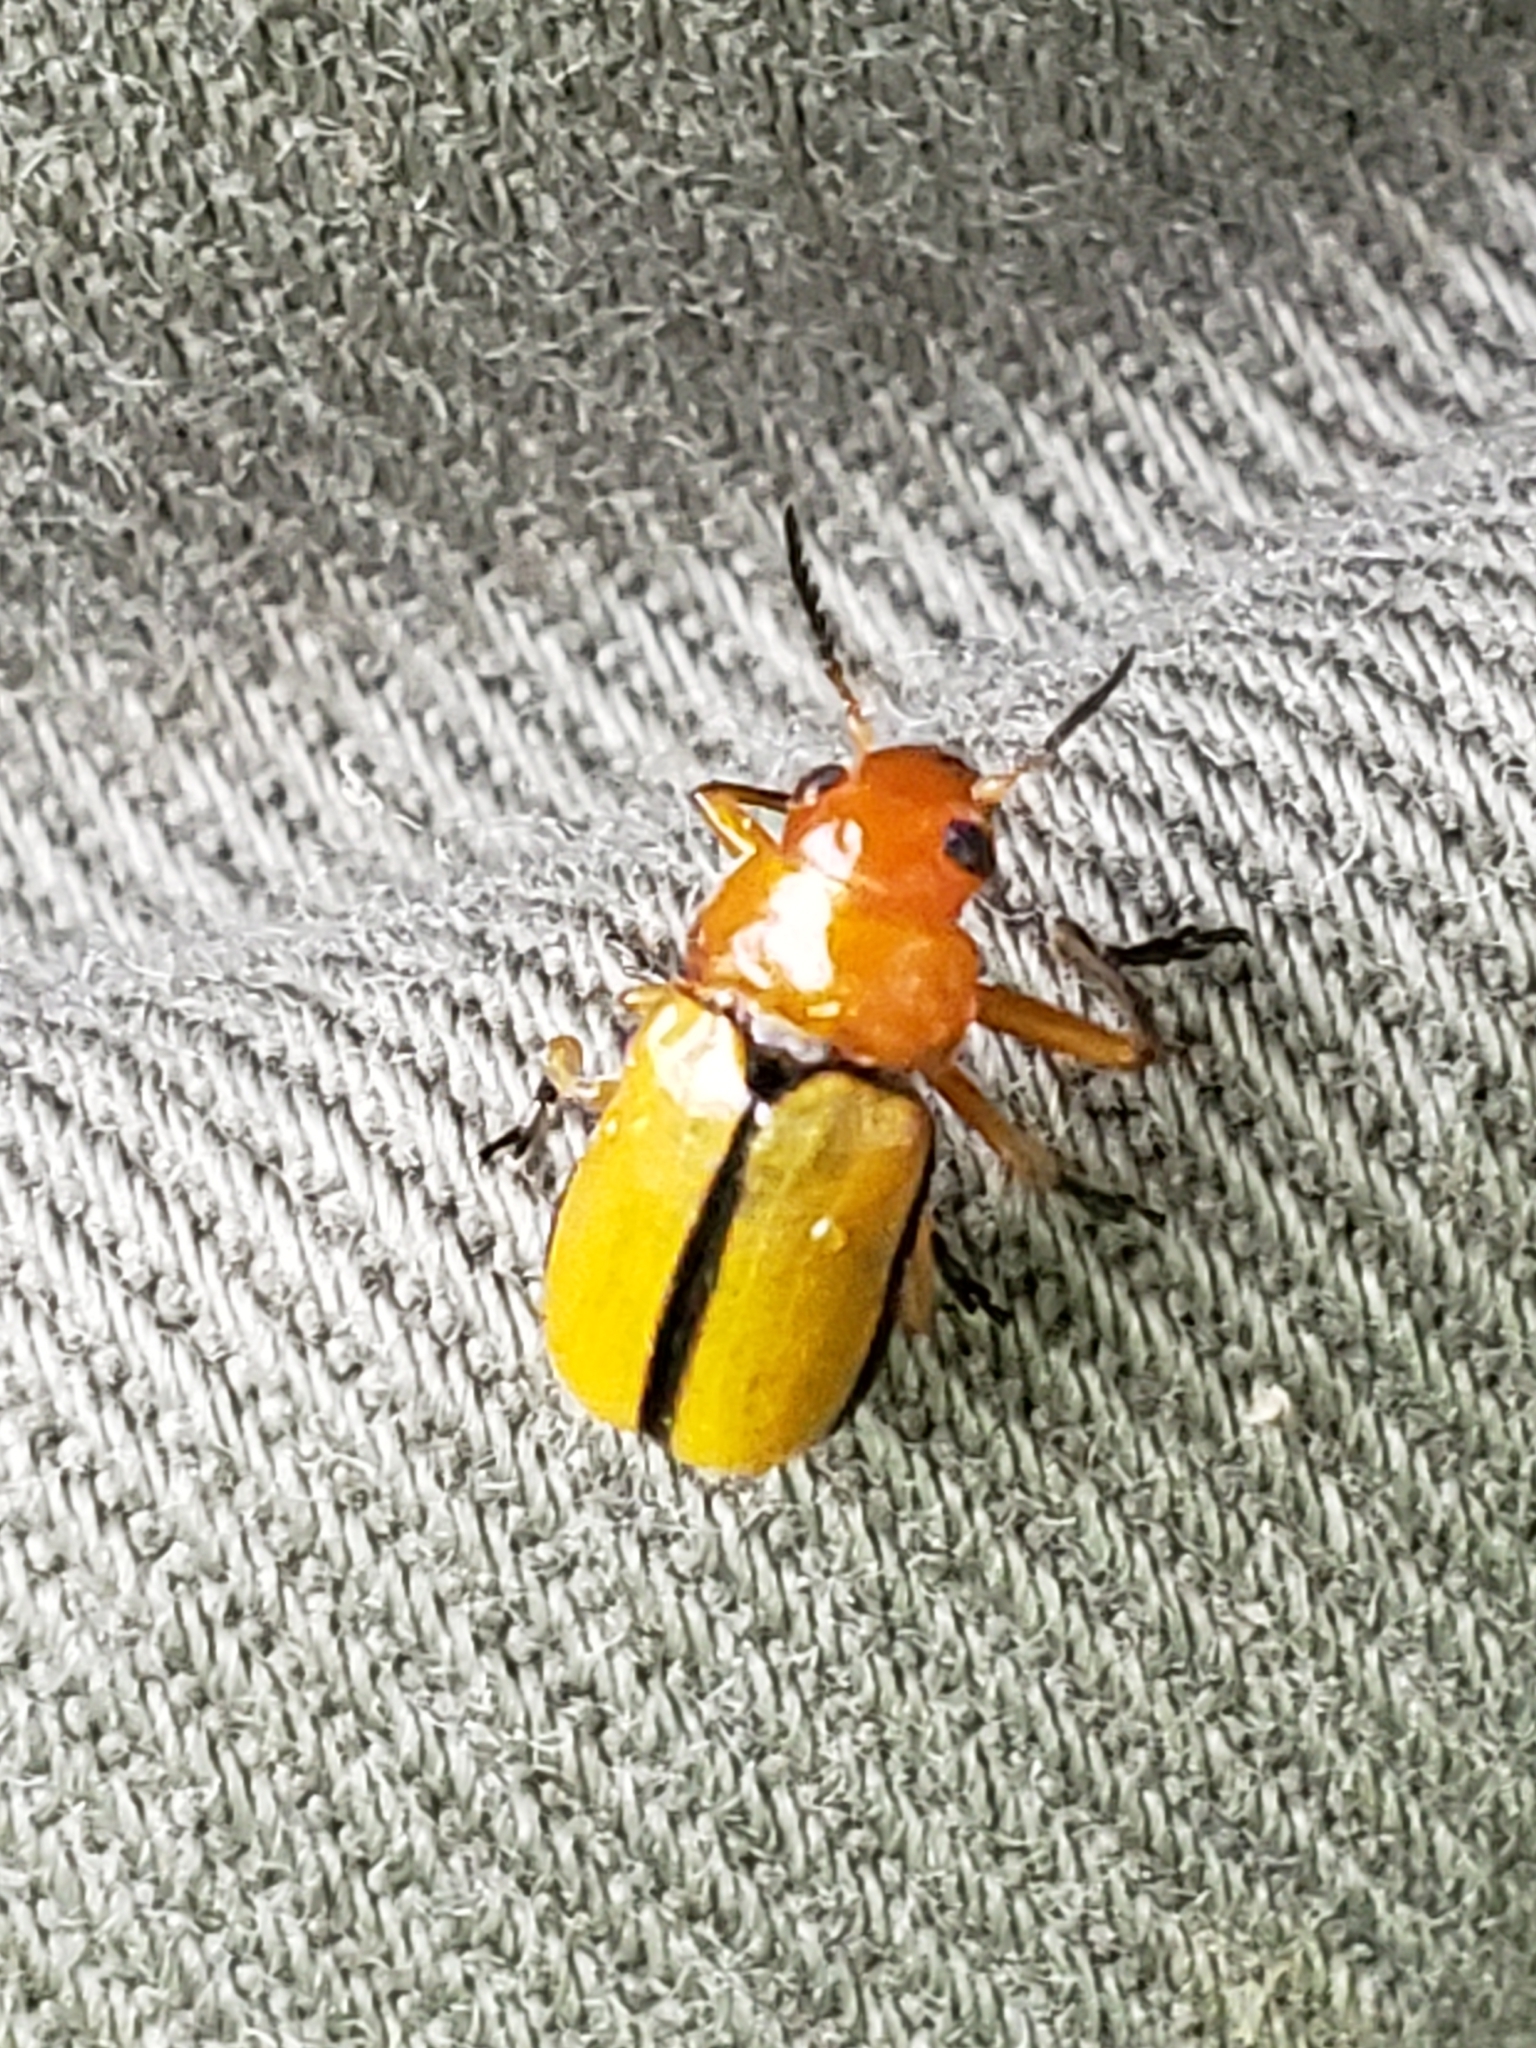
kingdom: Animalia
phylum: Arthropoda
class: Insecta
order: Coleoptera
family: Chrysomelidae
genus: Anomoea
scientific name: Anomoea laticlavia
